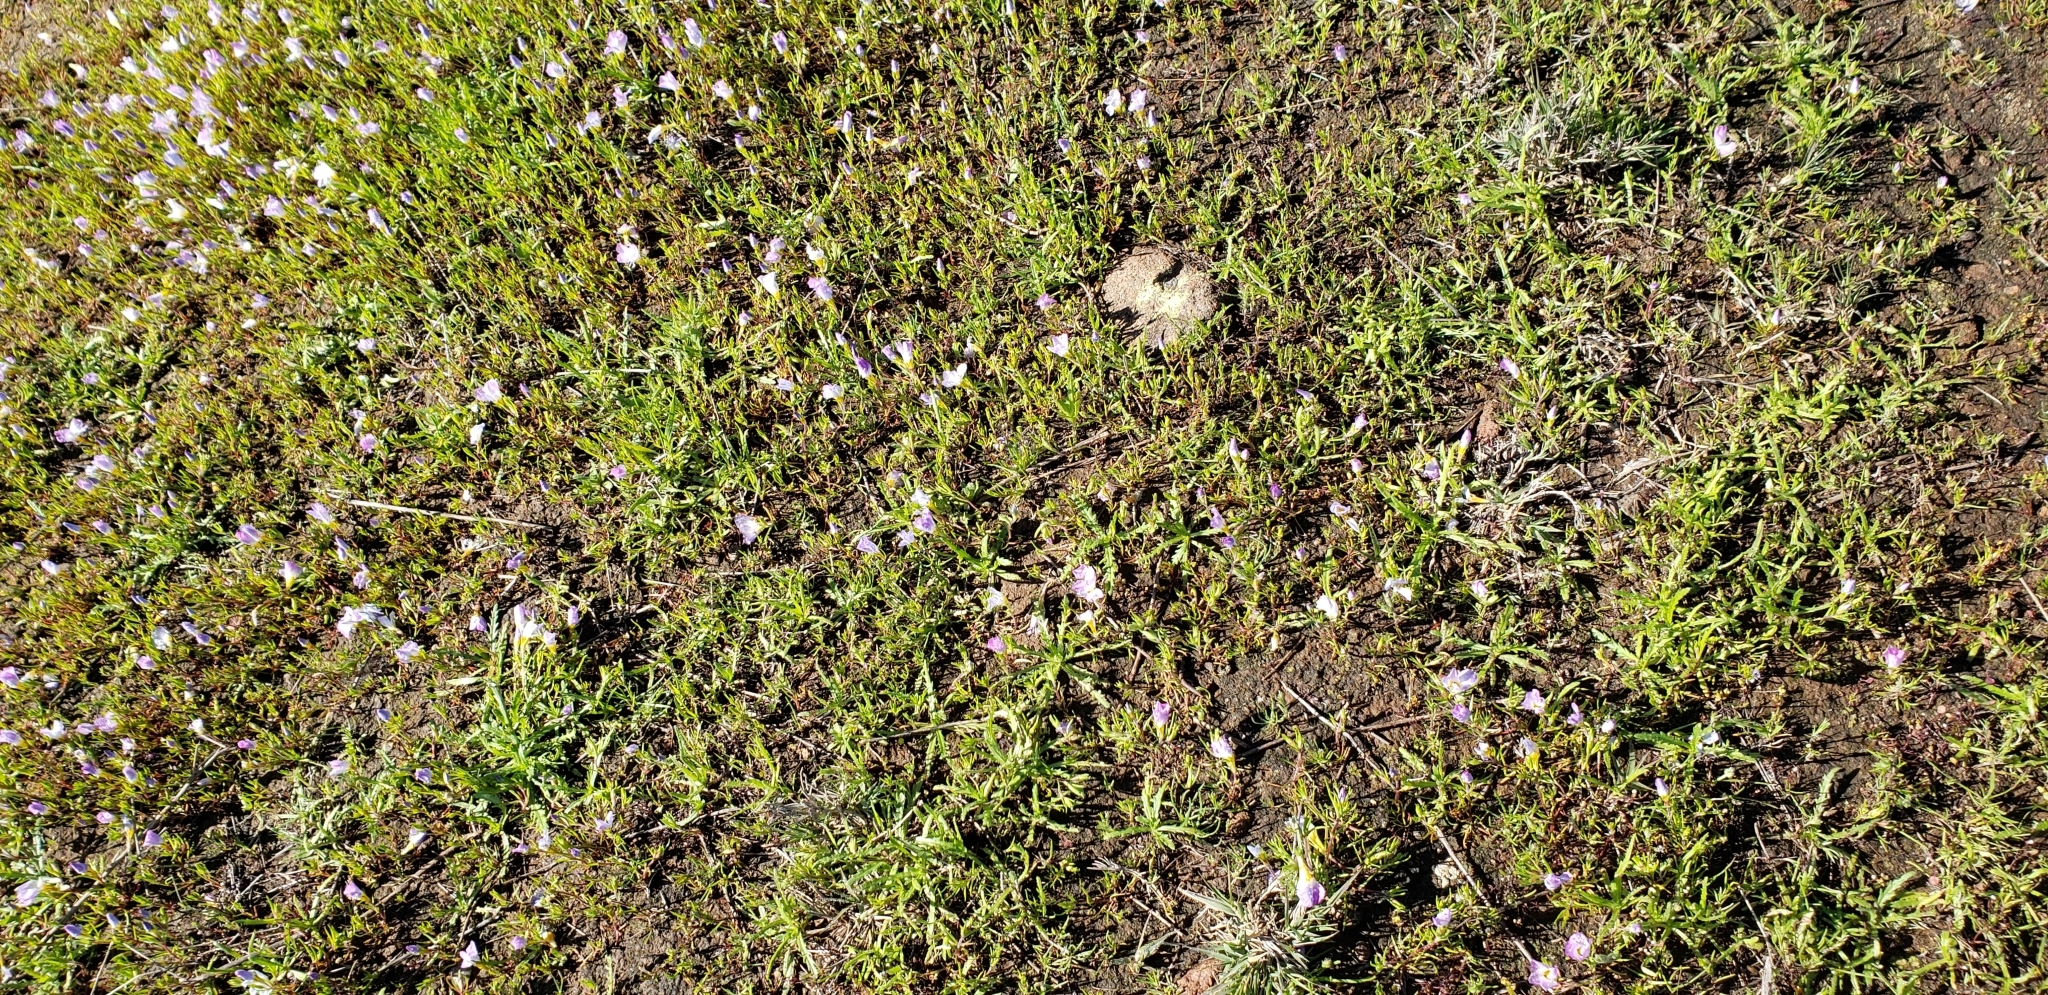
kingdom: Plantae
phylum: Tracheophyta
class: Magnoliopsida
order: Ericales
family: Polemoniaceae
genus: Linanthus
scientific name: Linanthus dianthiflorus
